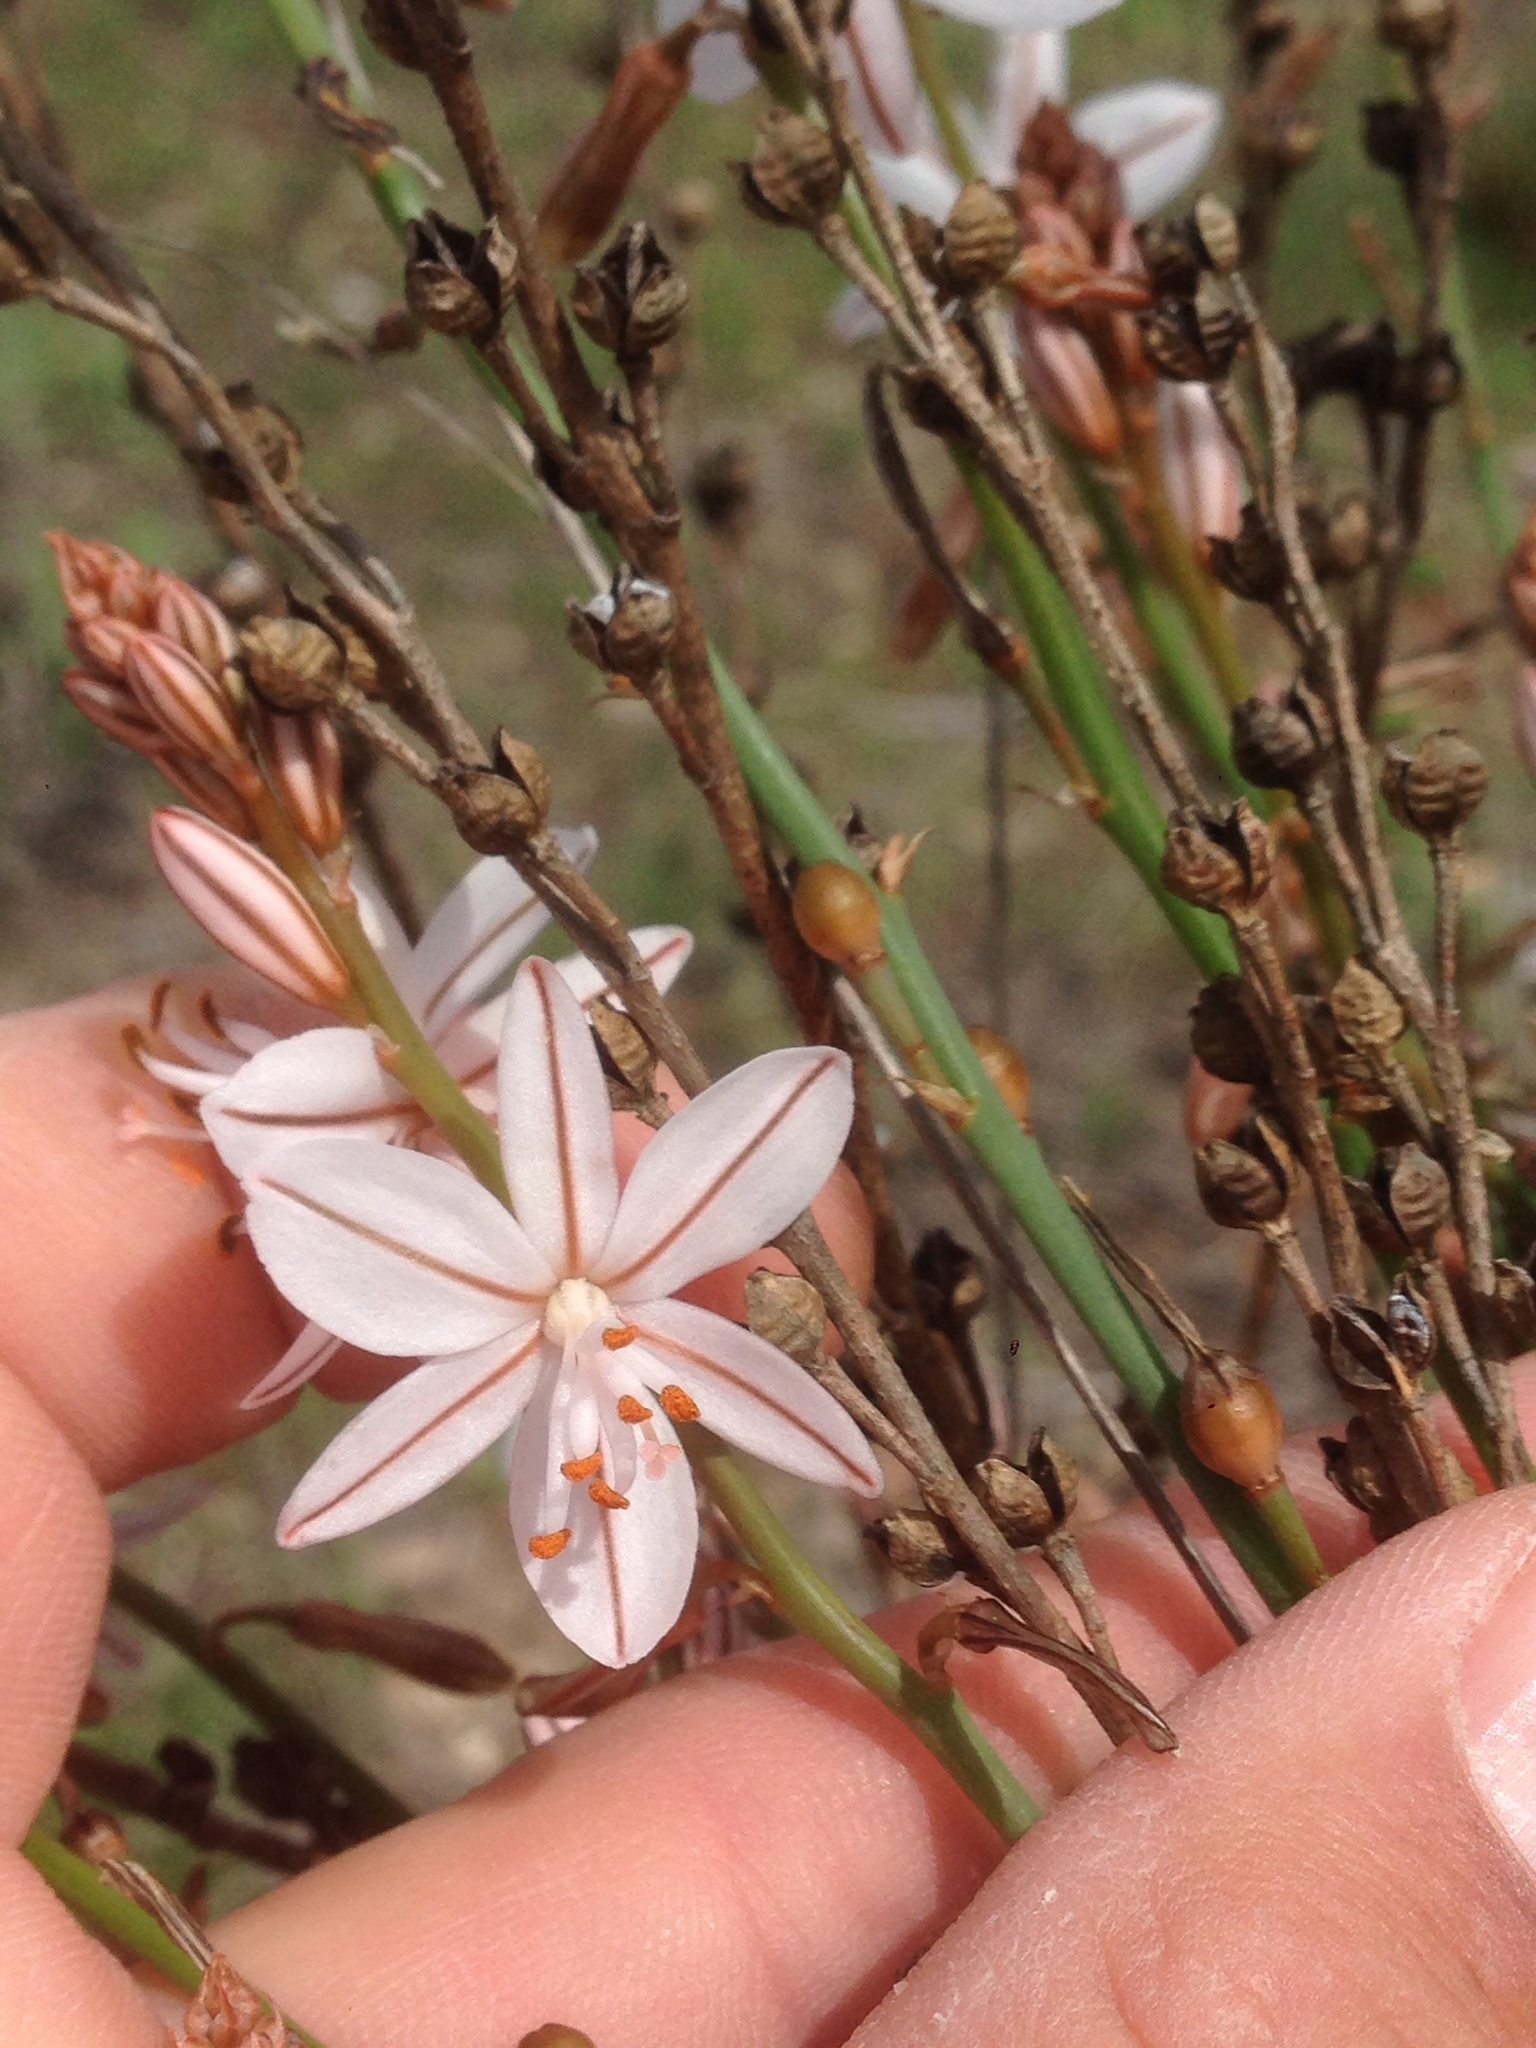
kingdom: Plantae
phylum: Tracheophyta
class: Liliopsida
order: Asparagales
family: Asphodelaceae
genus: Asphodelus
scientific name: Asphodelus fistulosus
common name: Onionweed
